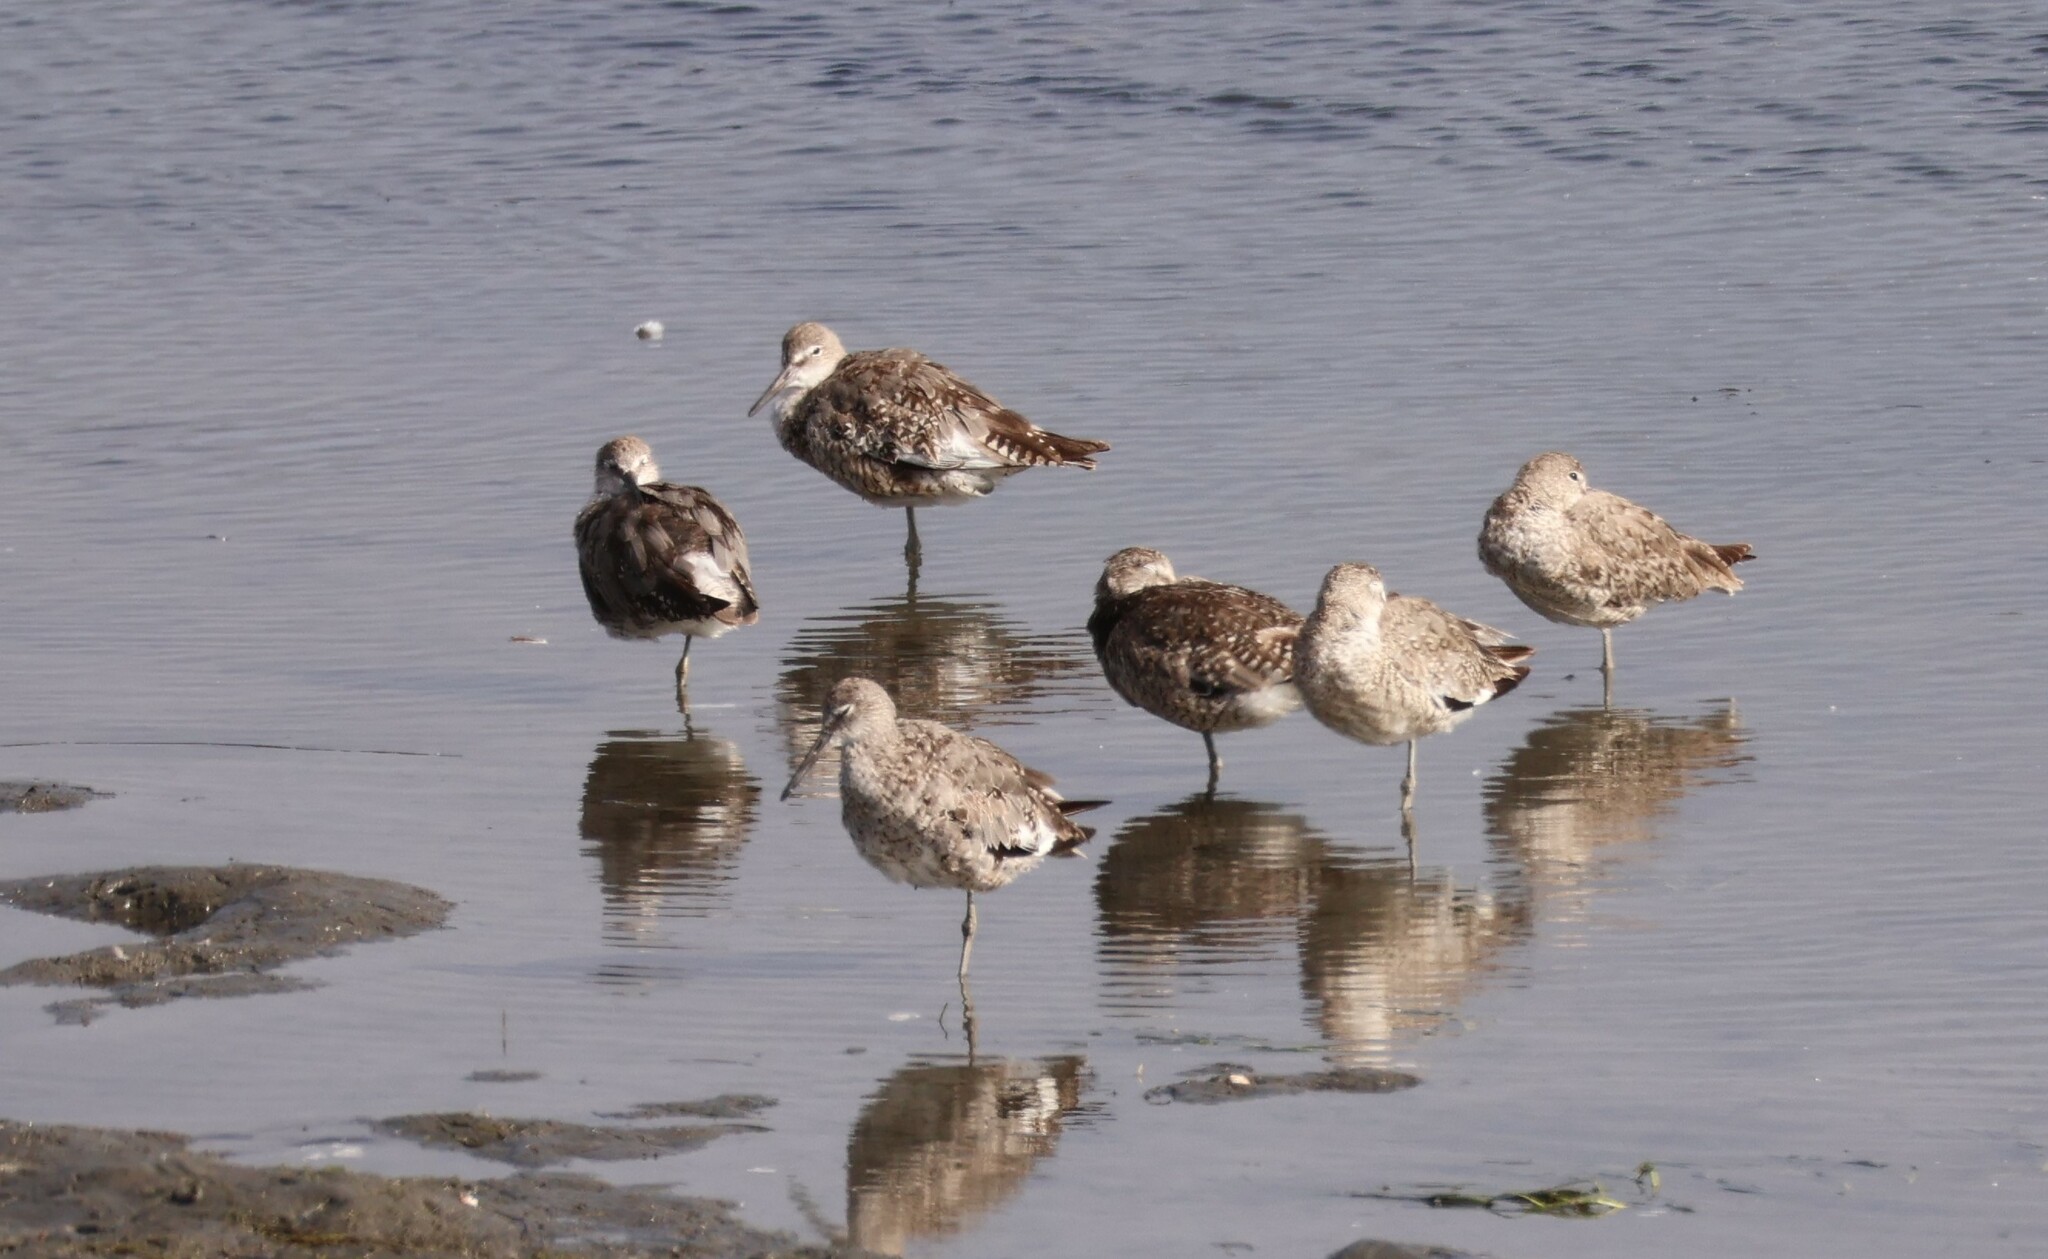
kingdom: Animalia
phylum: Chordata
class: Aves
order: Charadriiformes
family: Scolopacidae
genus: Tringa
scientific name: Tringa semipalmata
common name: Willet
